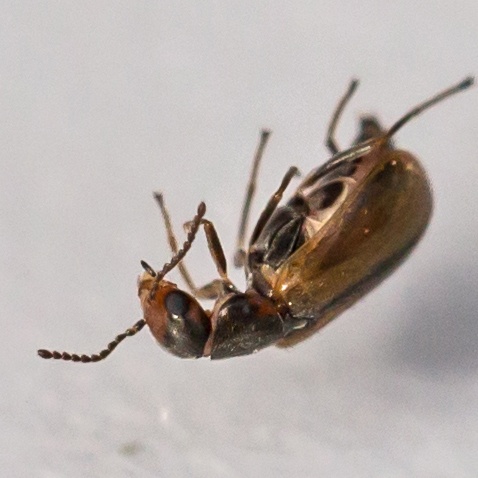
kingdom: Animalia
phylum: Arthropoda
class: Insecta
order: Coleoptera
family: Malachiidae
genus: Attalus
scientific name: Attalus
